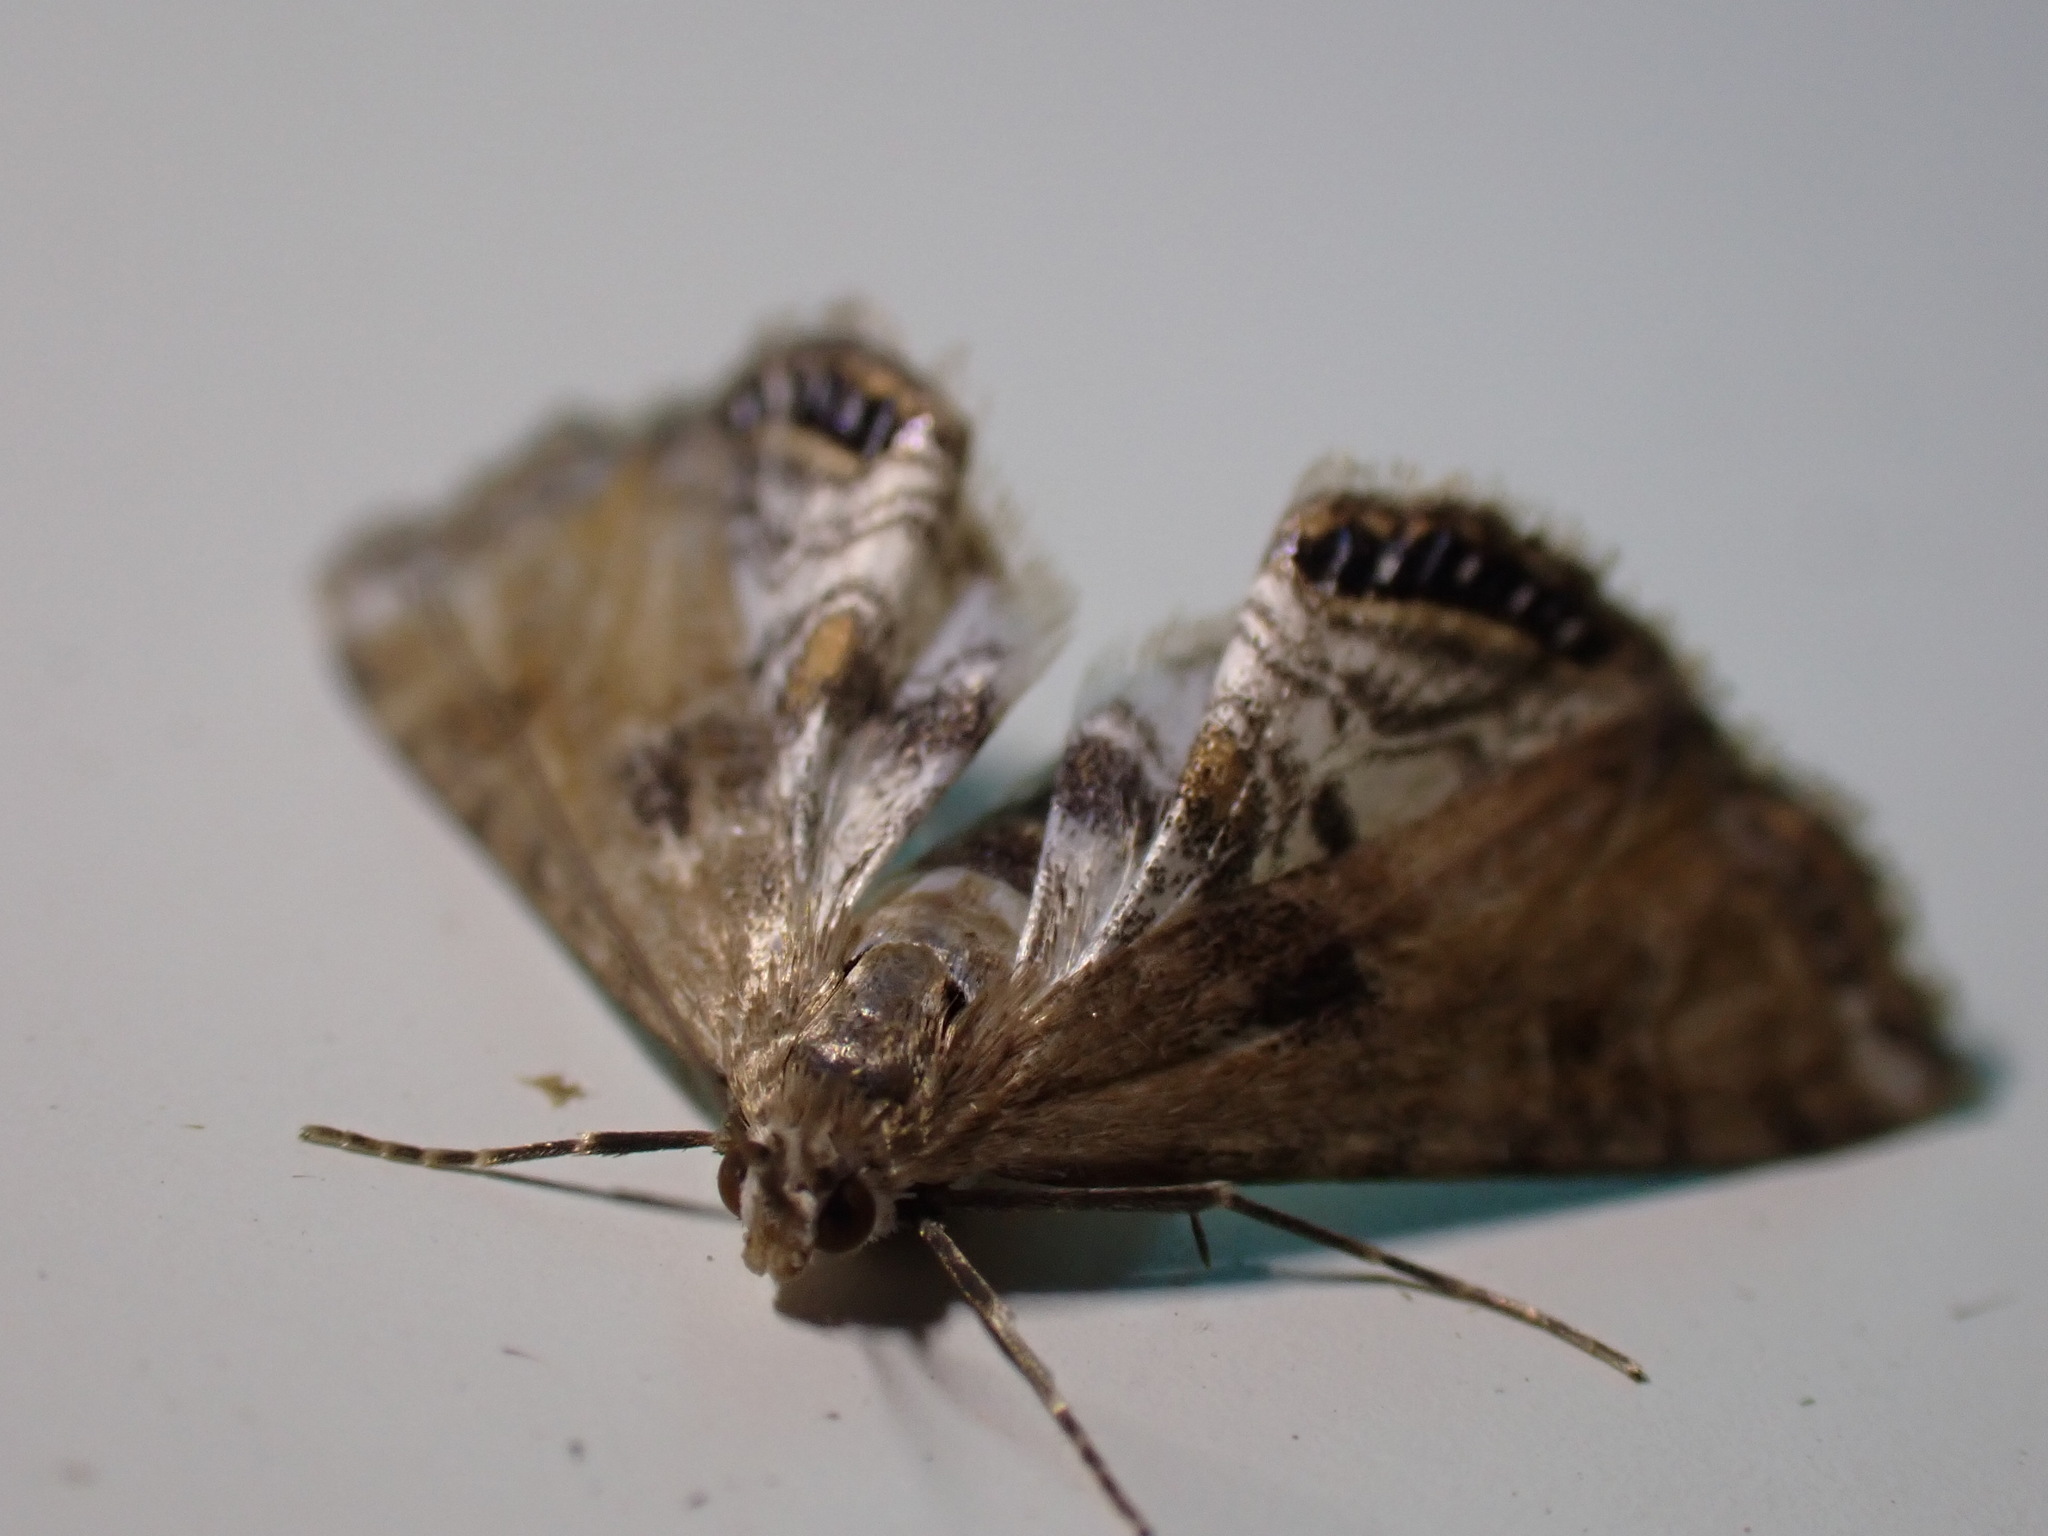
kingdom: Animalia
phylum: Arthropoda
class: Insecta
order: Lepidoptera
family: Crambidae
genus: Cataclysta
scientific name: Cataclysta lemnata
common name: Small china-mark
